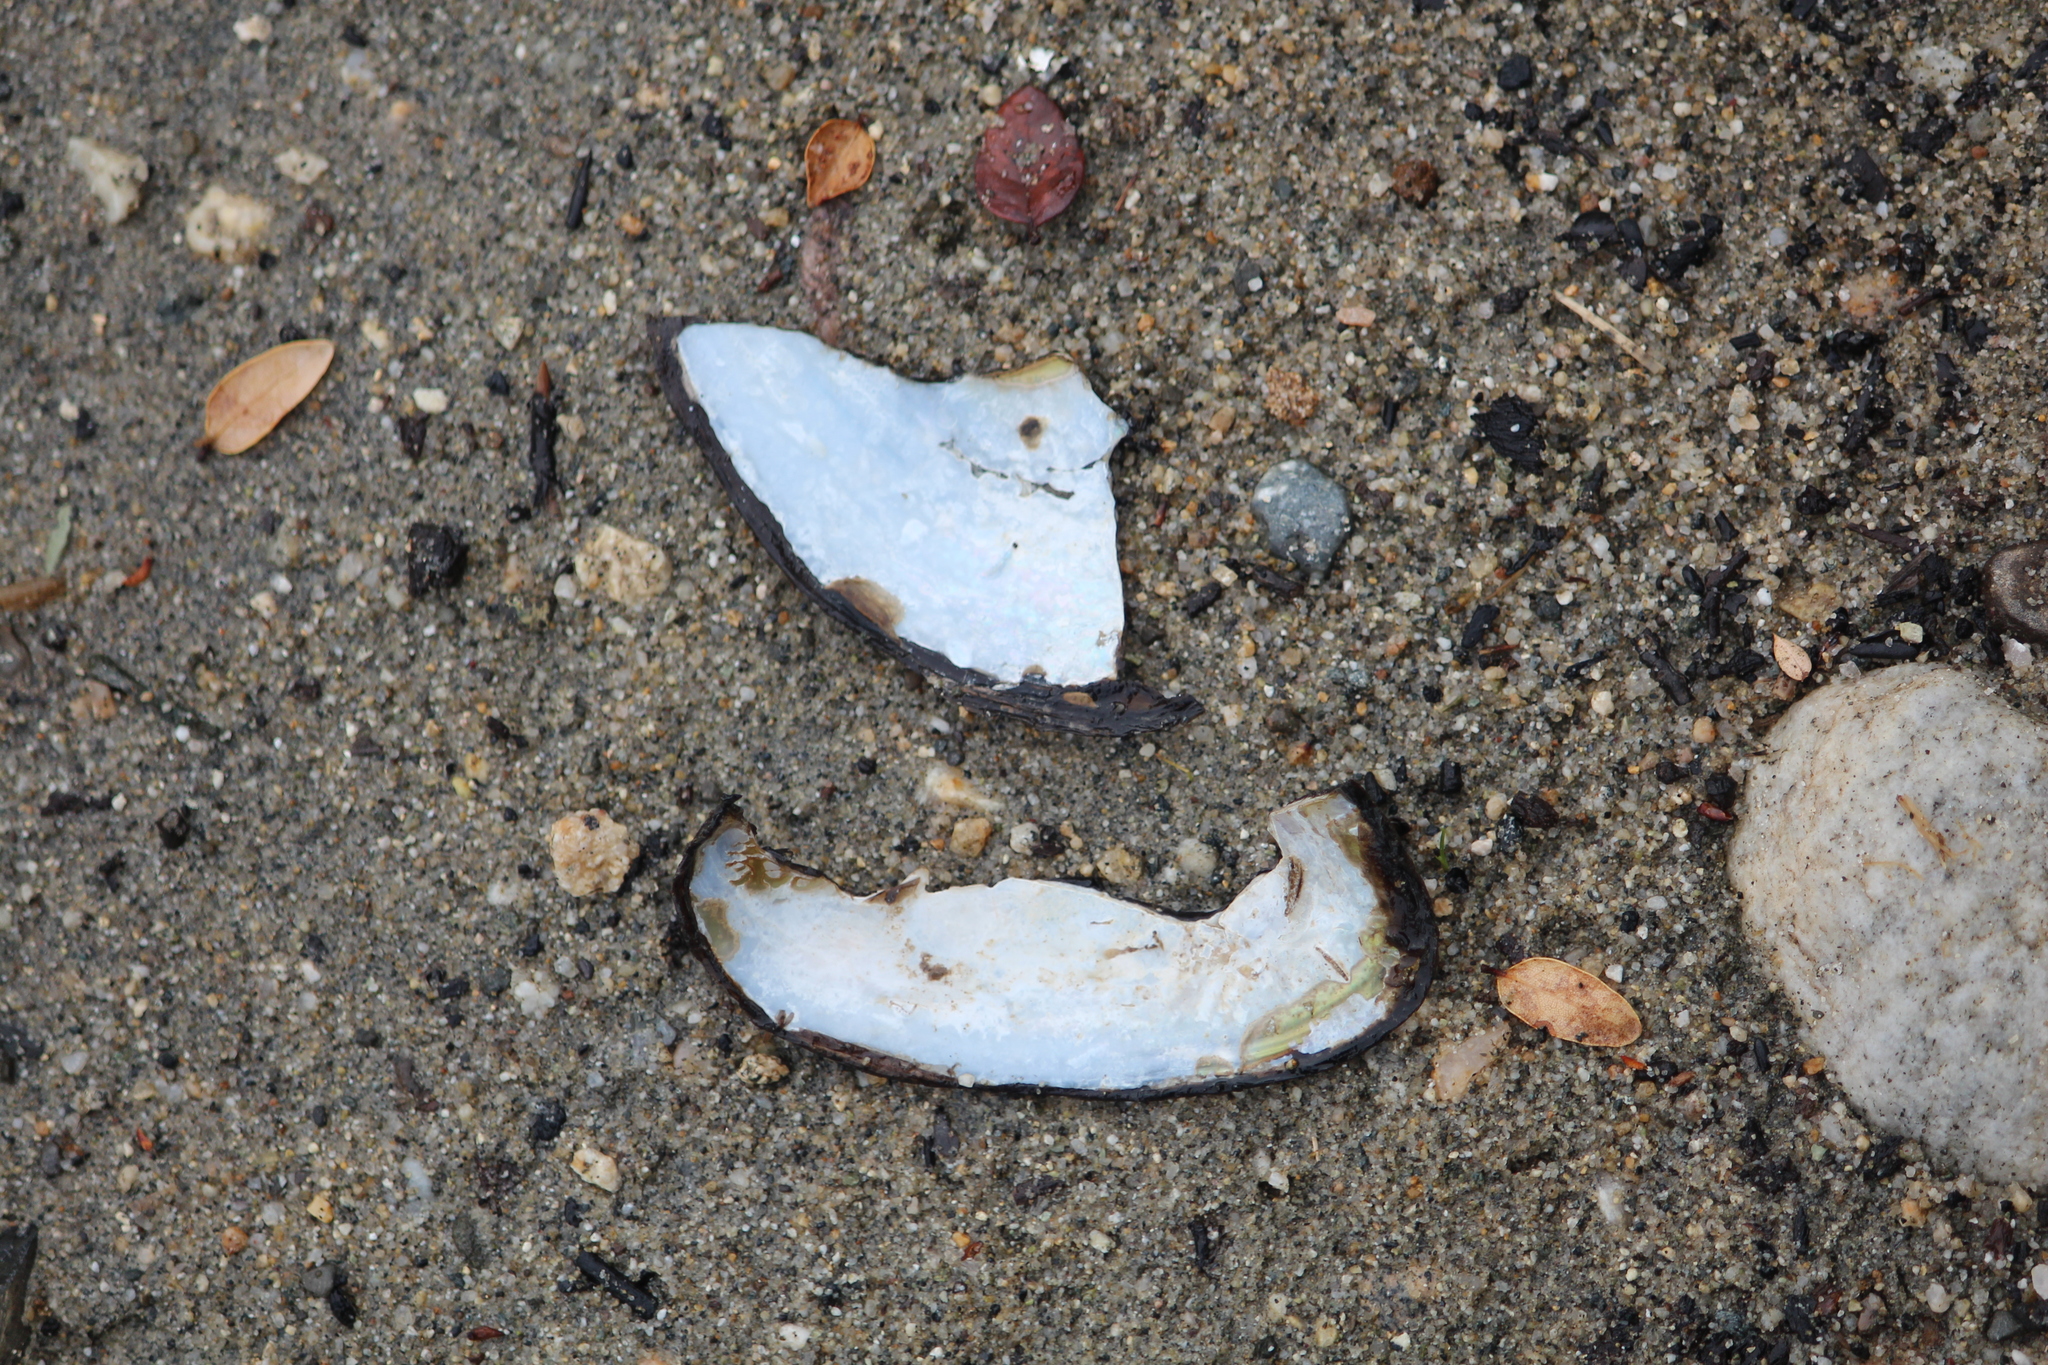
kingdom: Animalia
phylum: Mollusca
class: Bivalvia
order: Unionida
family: Hyriidae
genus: Echyridella
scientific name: Echyridella menziesii
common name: New zealand freshwater mussel
